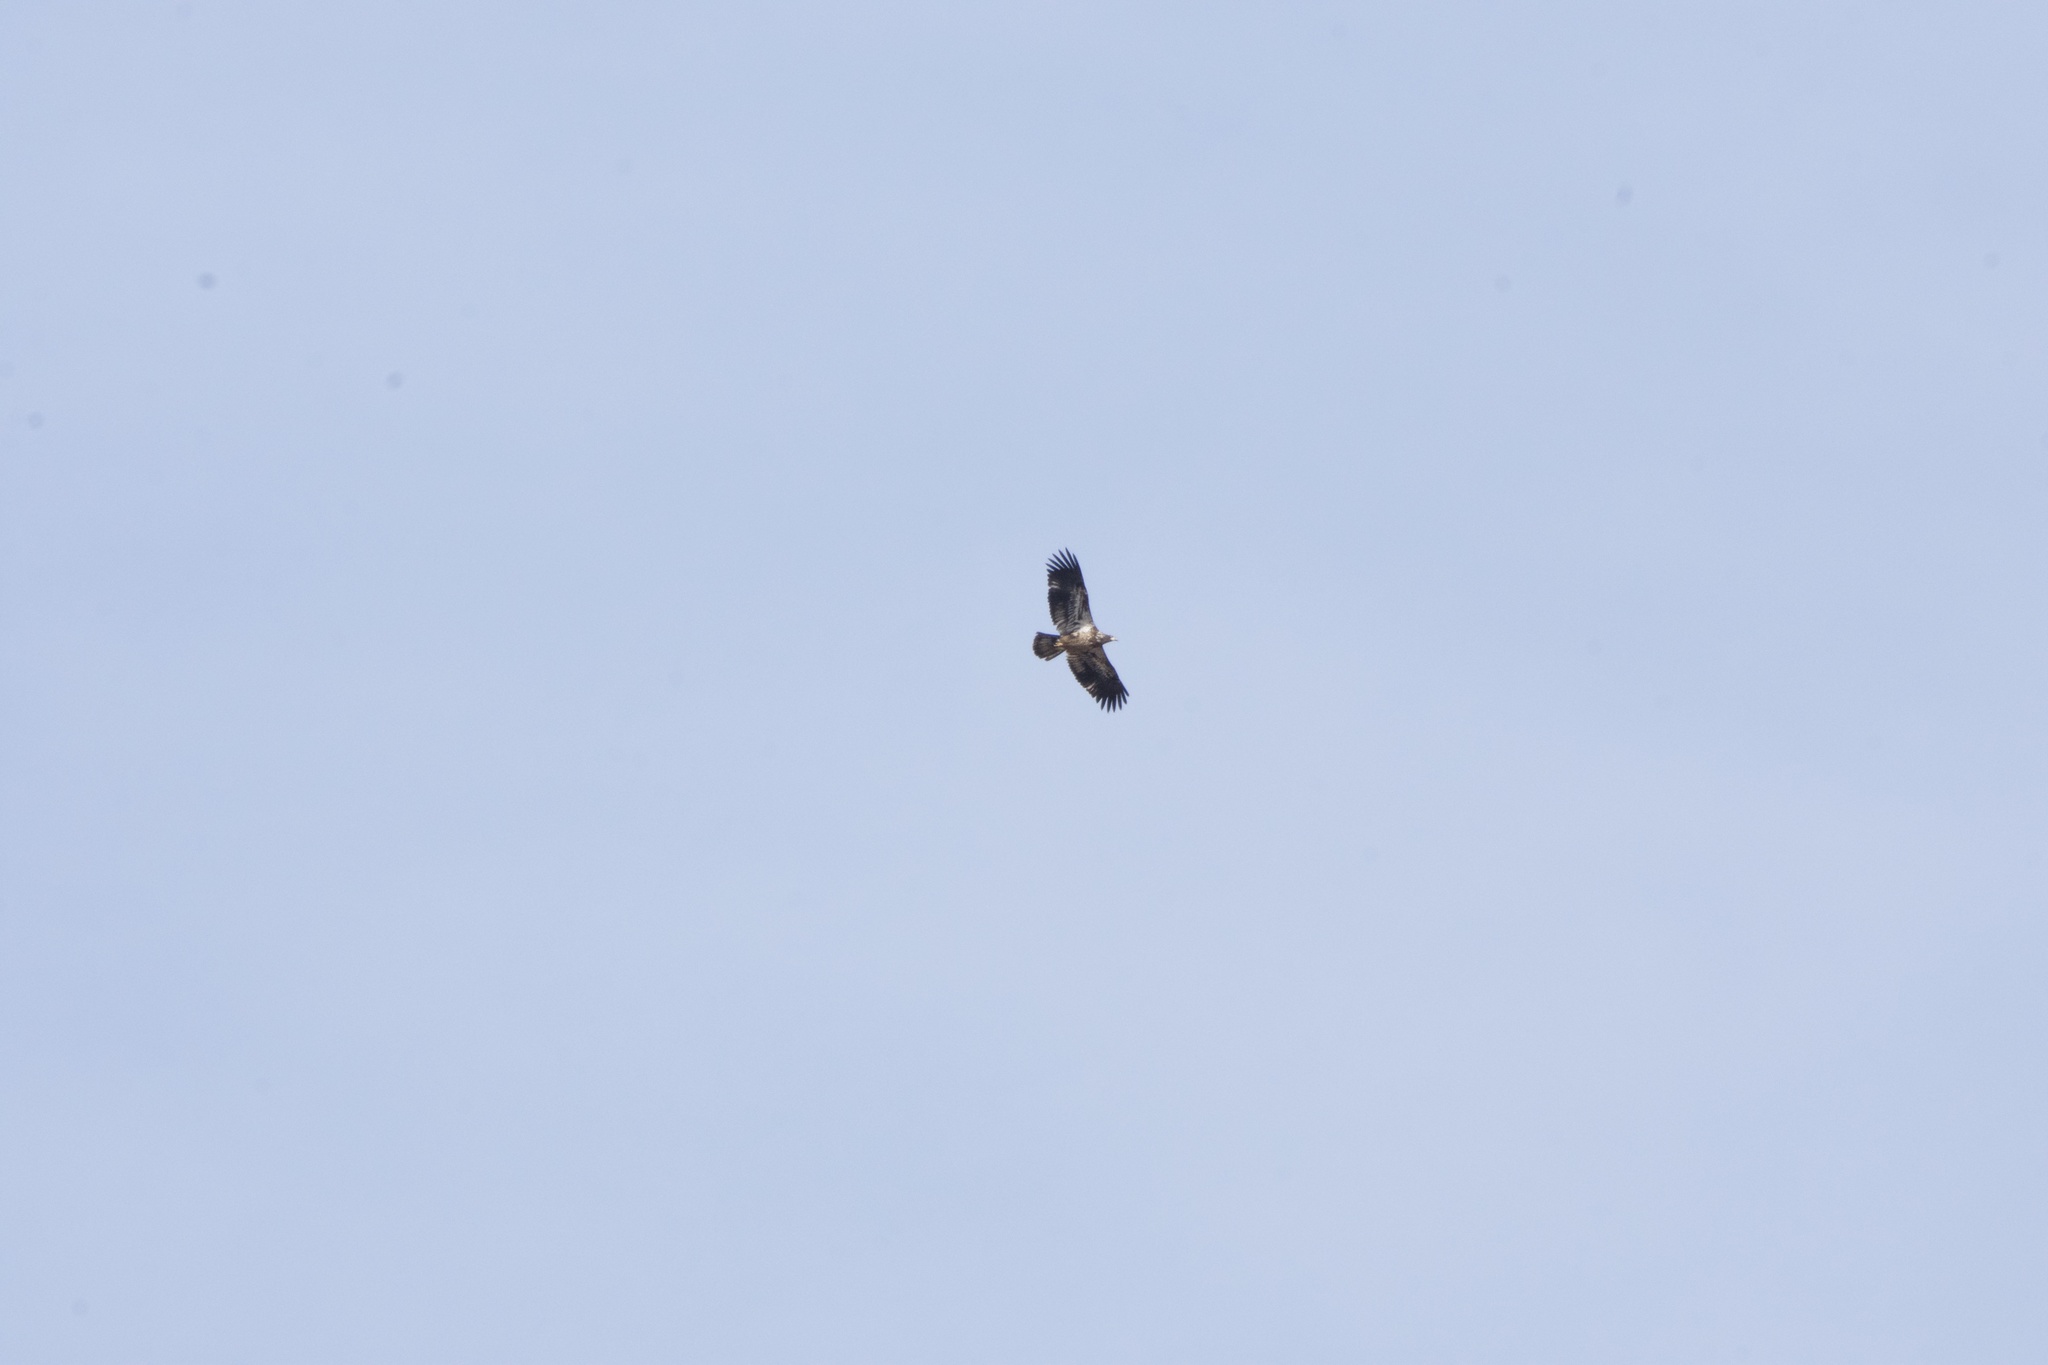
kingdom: Animalia
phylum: Chordata
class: Aves
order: Accipitriformes
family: Accipitridae
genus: Haliaeetus
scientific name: Haliaeetus leucocephalus
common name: Bald eagle
